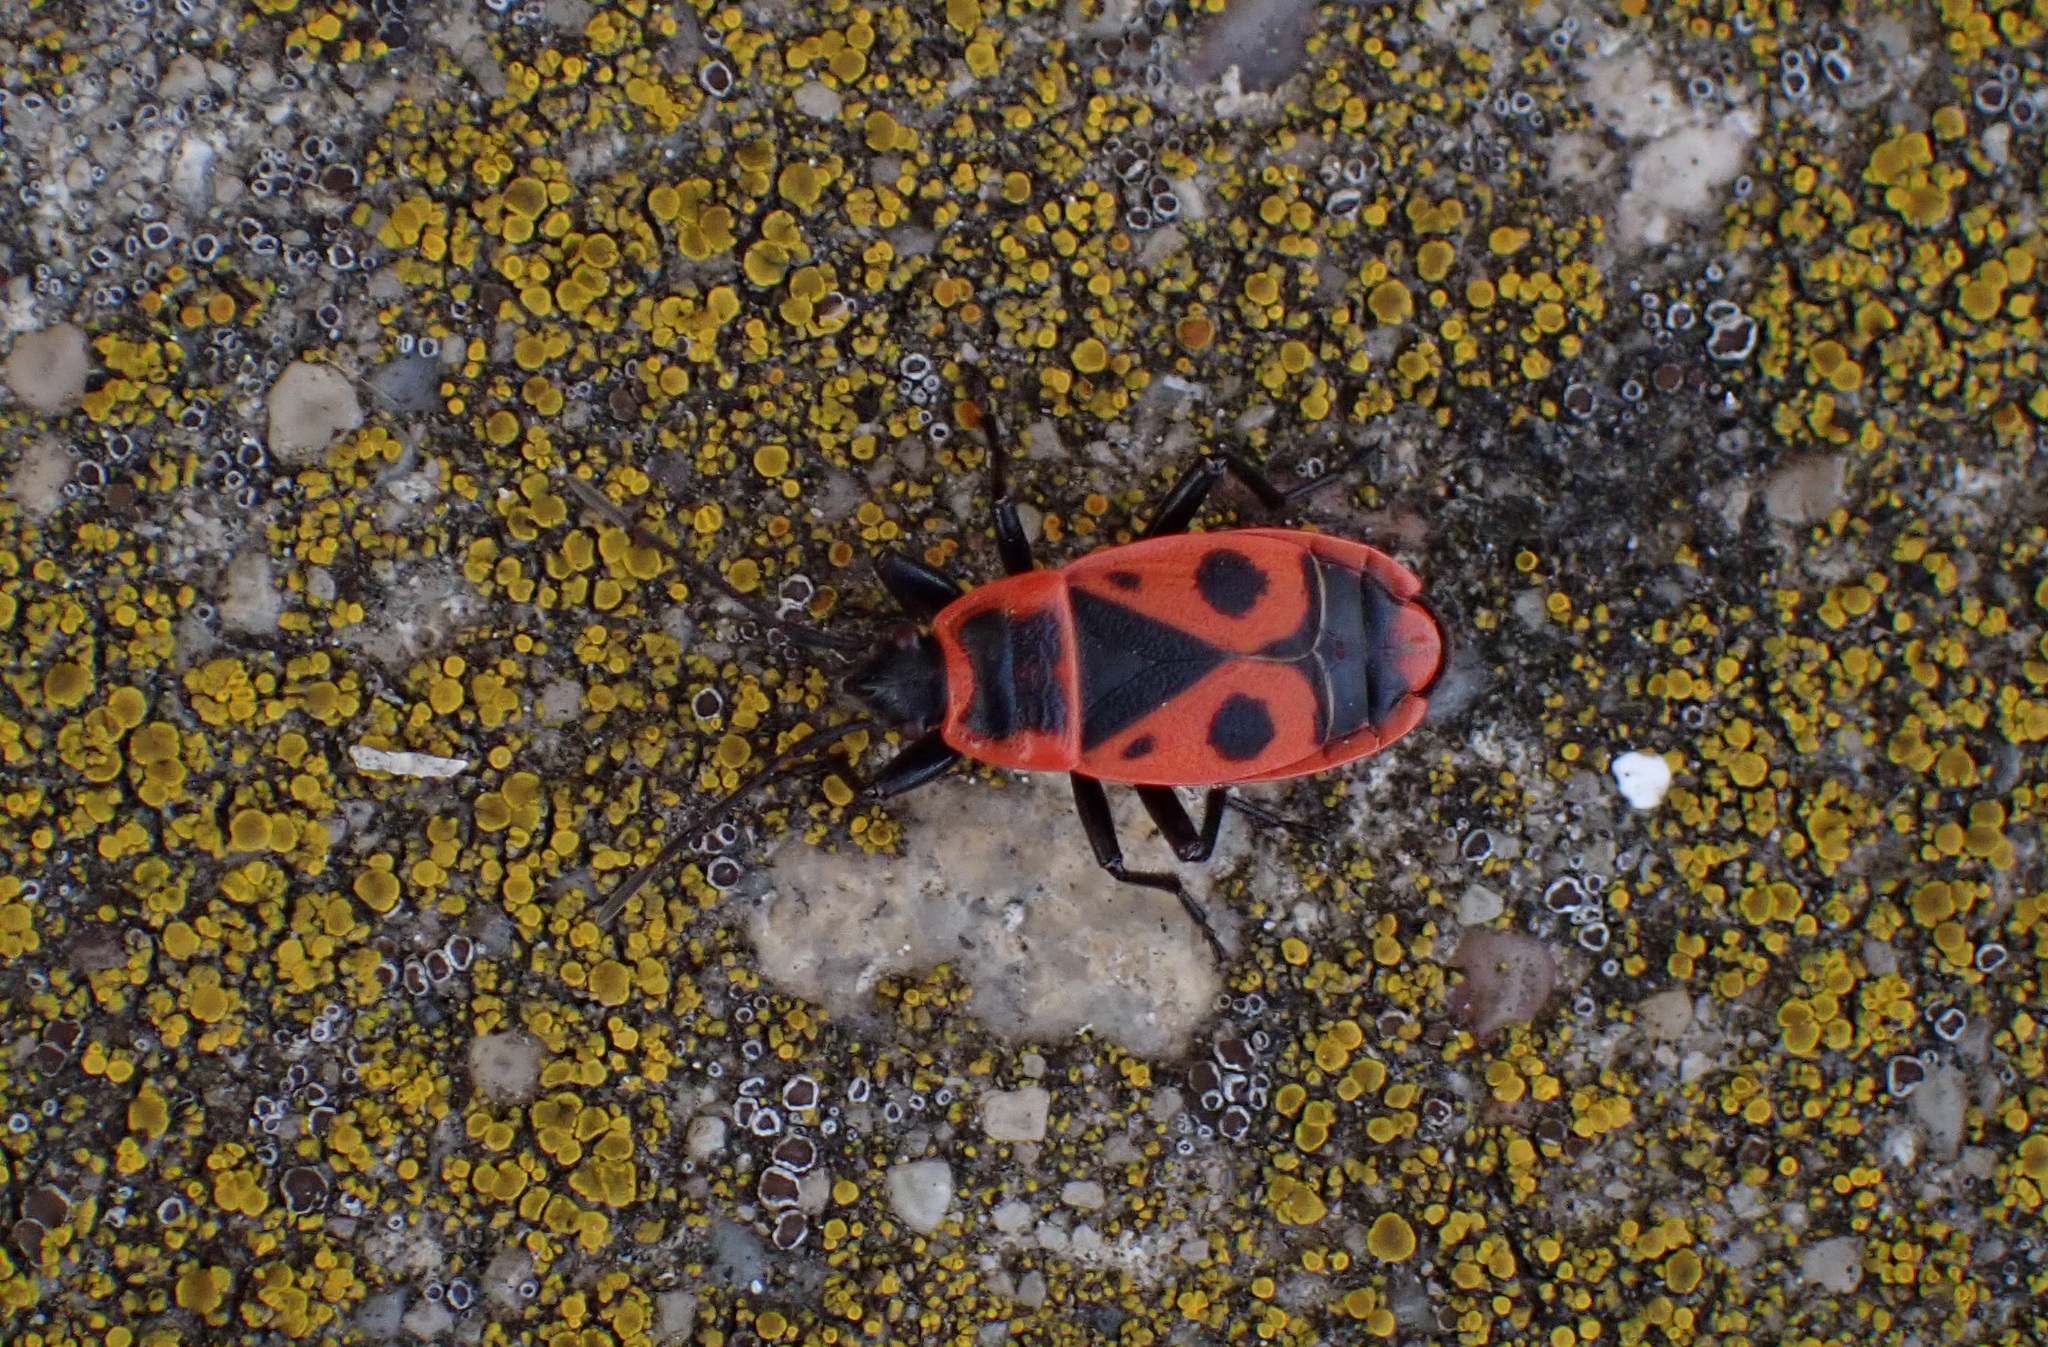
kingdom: Animalia
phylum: Arthropoda
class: Insecta
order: Hemiptera
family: Pyrrhocoridae
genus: Pyrrhocoris
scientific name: Pyrrhocoris apterus
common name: Firebug
